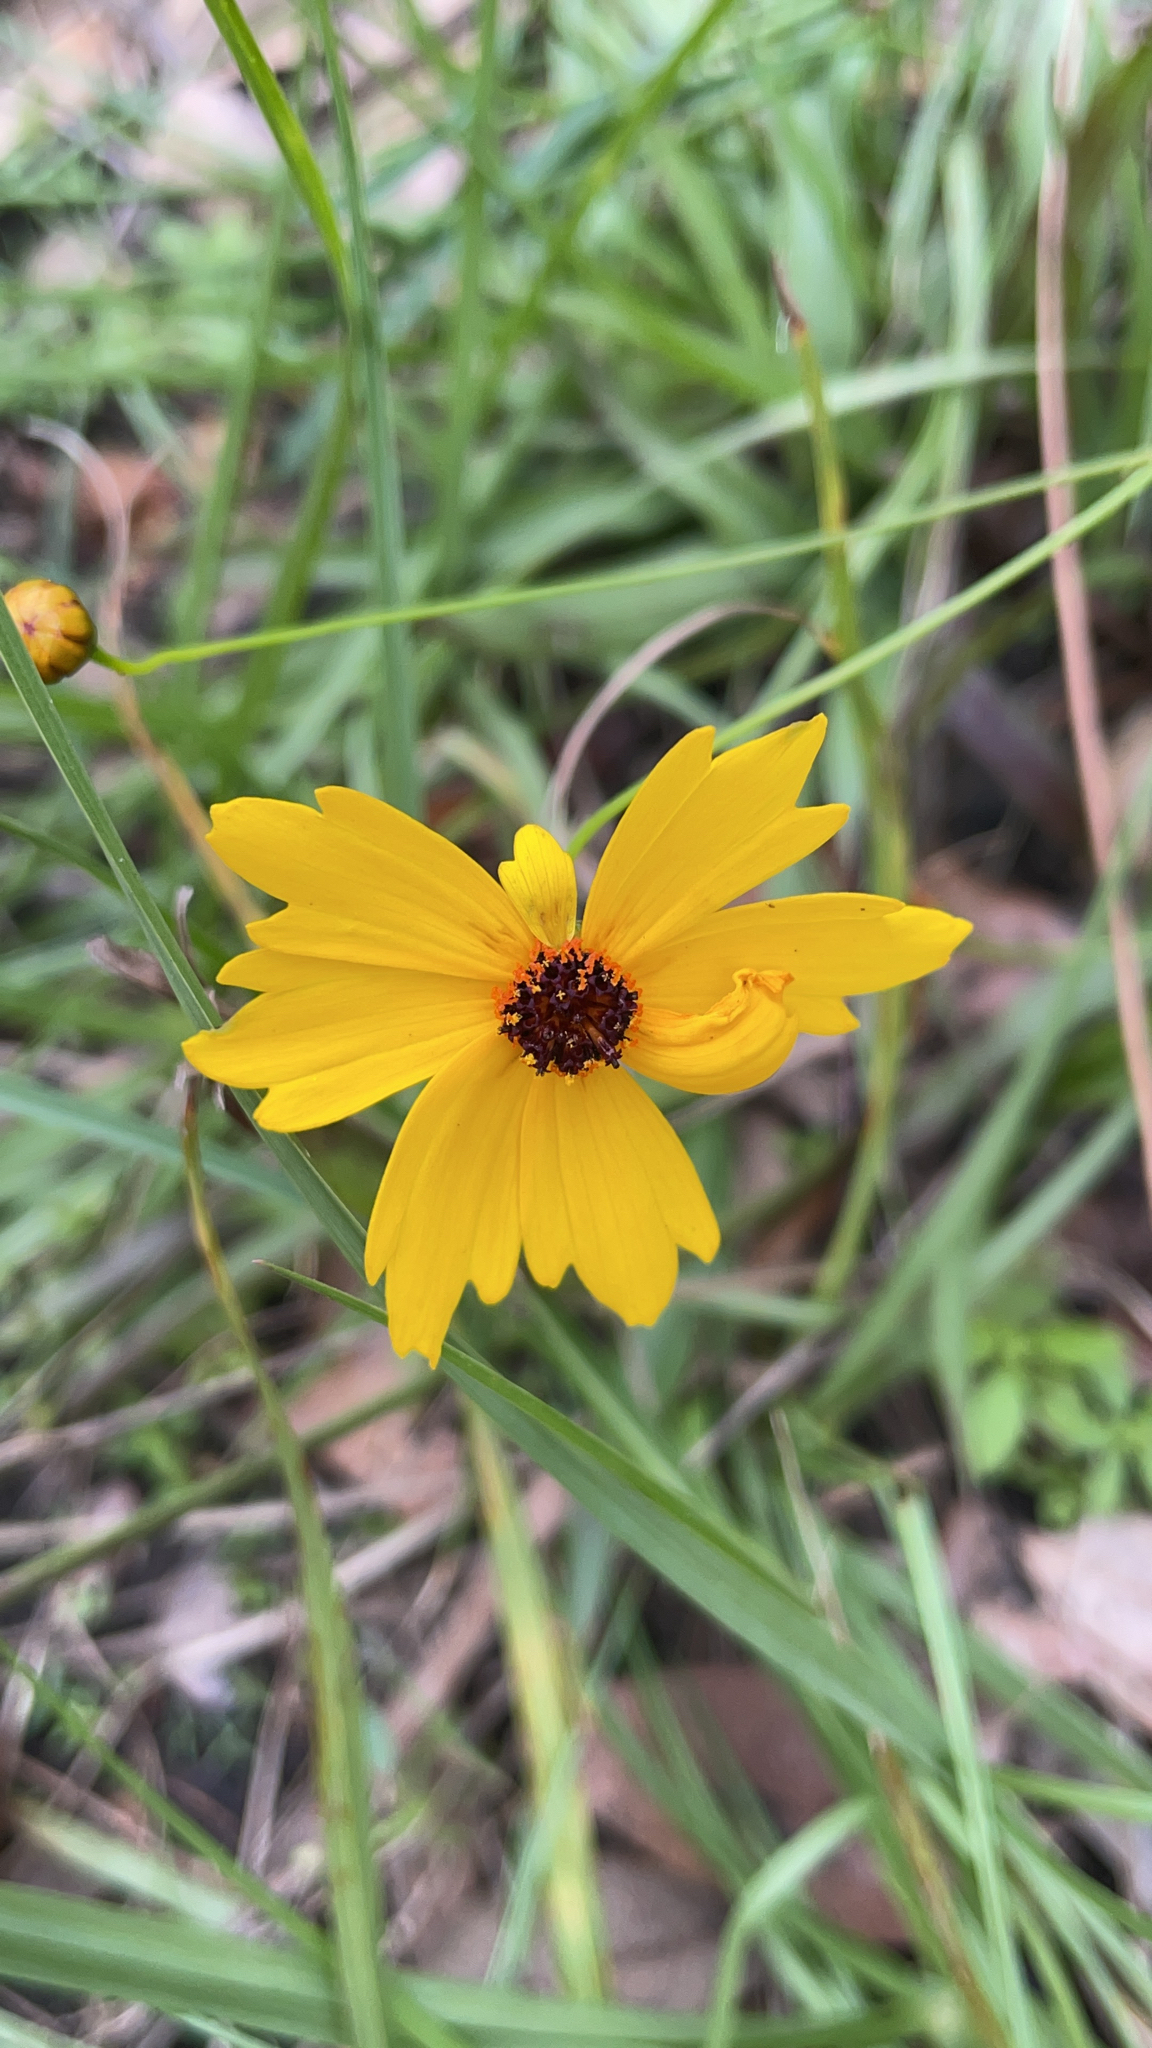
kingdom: Plantae
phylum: Tracheophyta
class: Magnoliopsida
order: Asterales
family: Asteraceae
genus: Coreopsis
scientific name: Coreopsis leavenworthii
